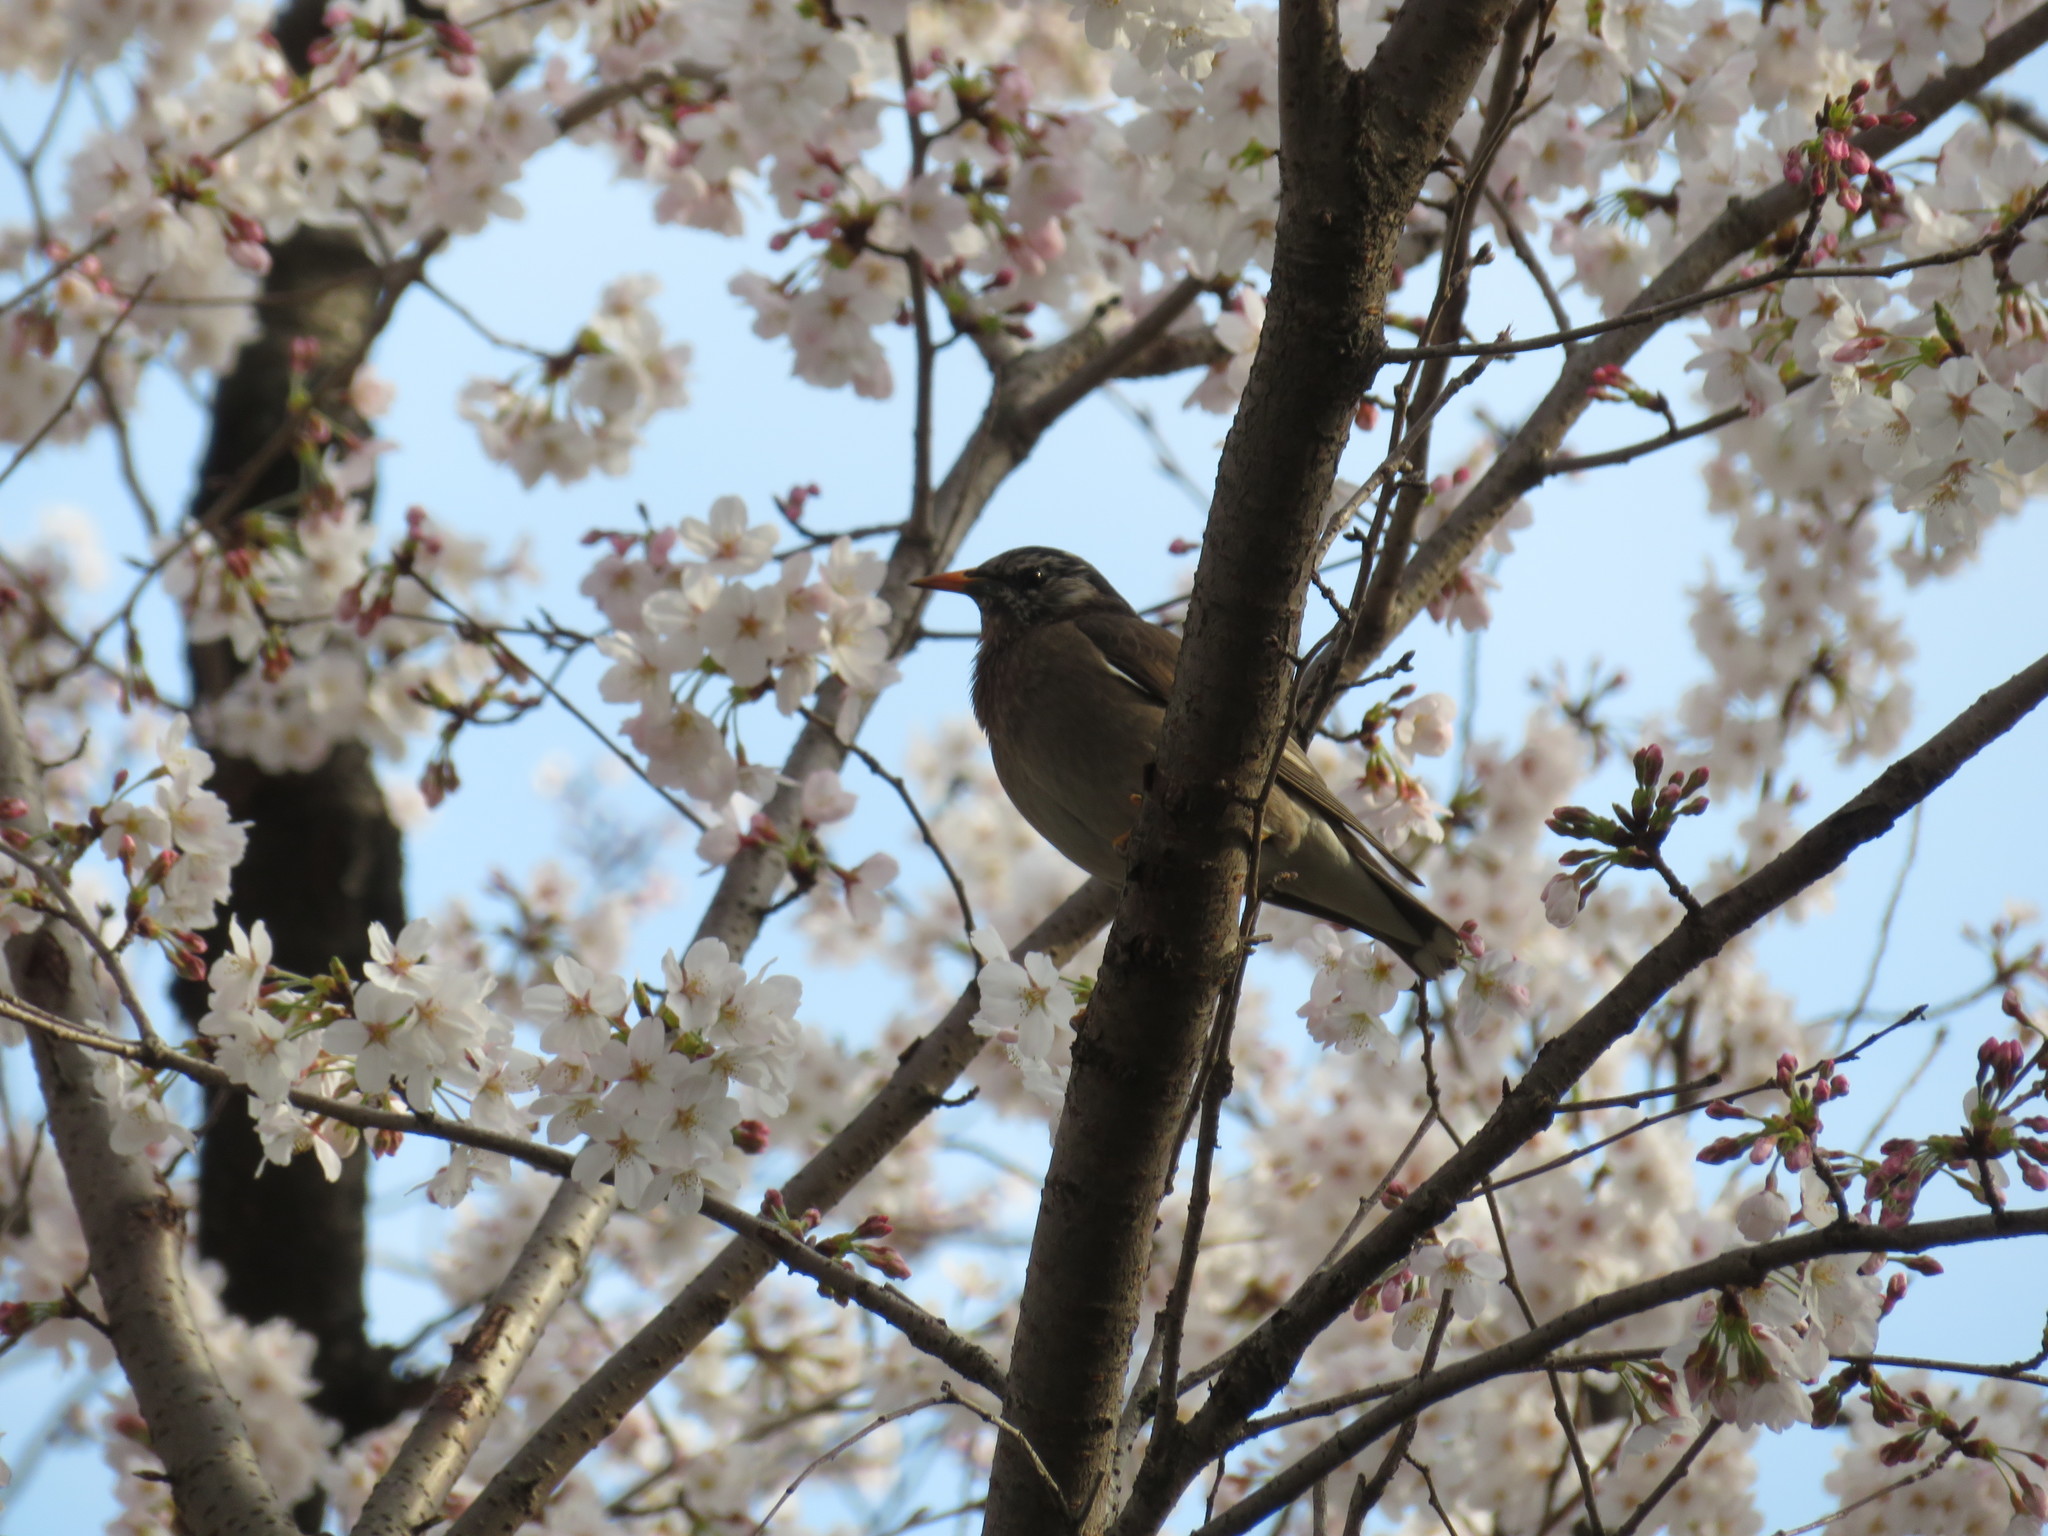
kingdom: Animalia
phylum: Chordata
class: Aves
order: Passeriformes
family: Sturnidae
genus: Spodiopsar
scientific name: Spodiopsar cineraceus
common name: White-cheeked starling
